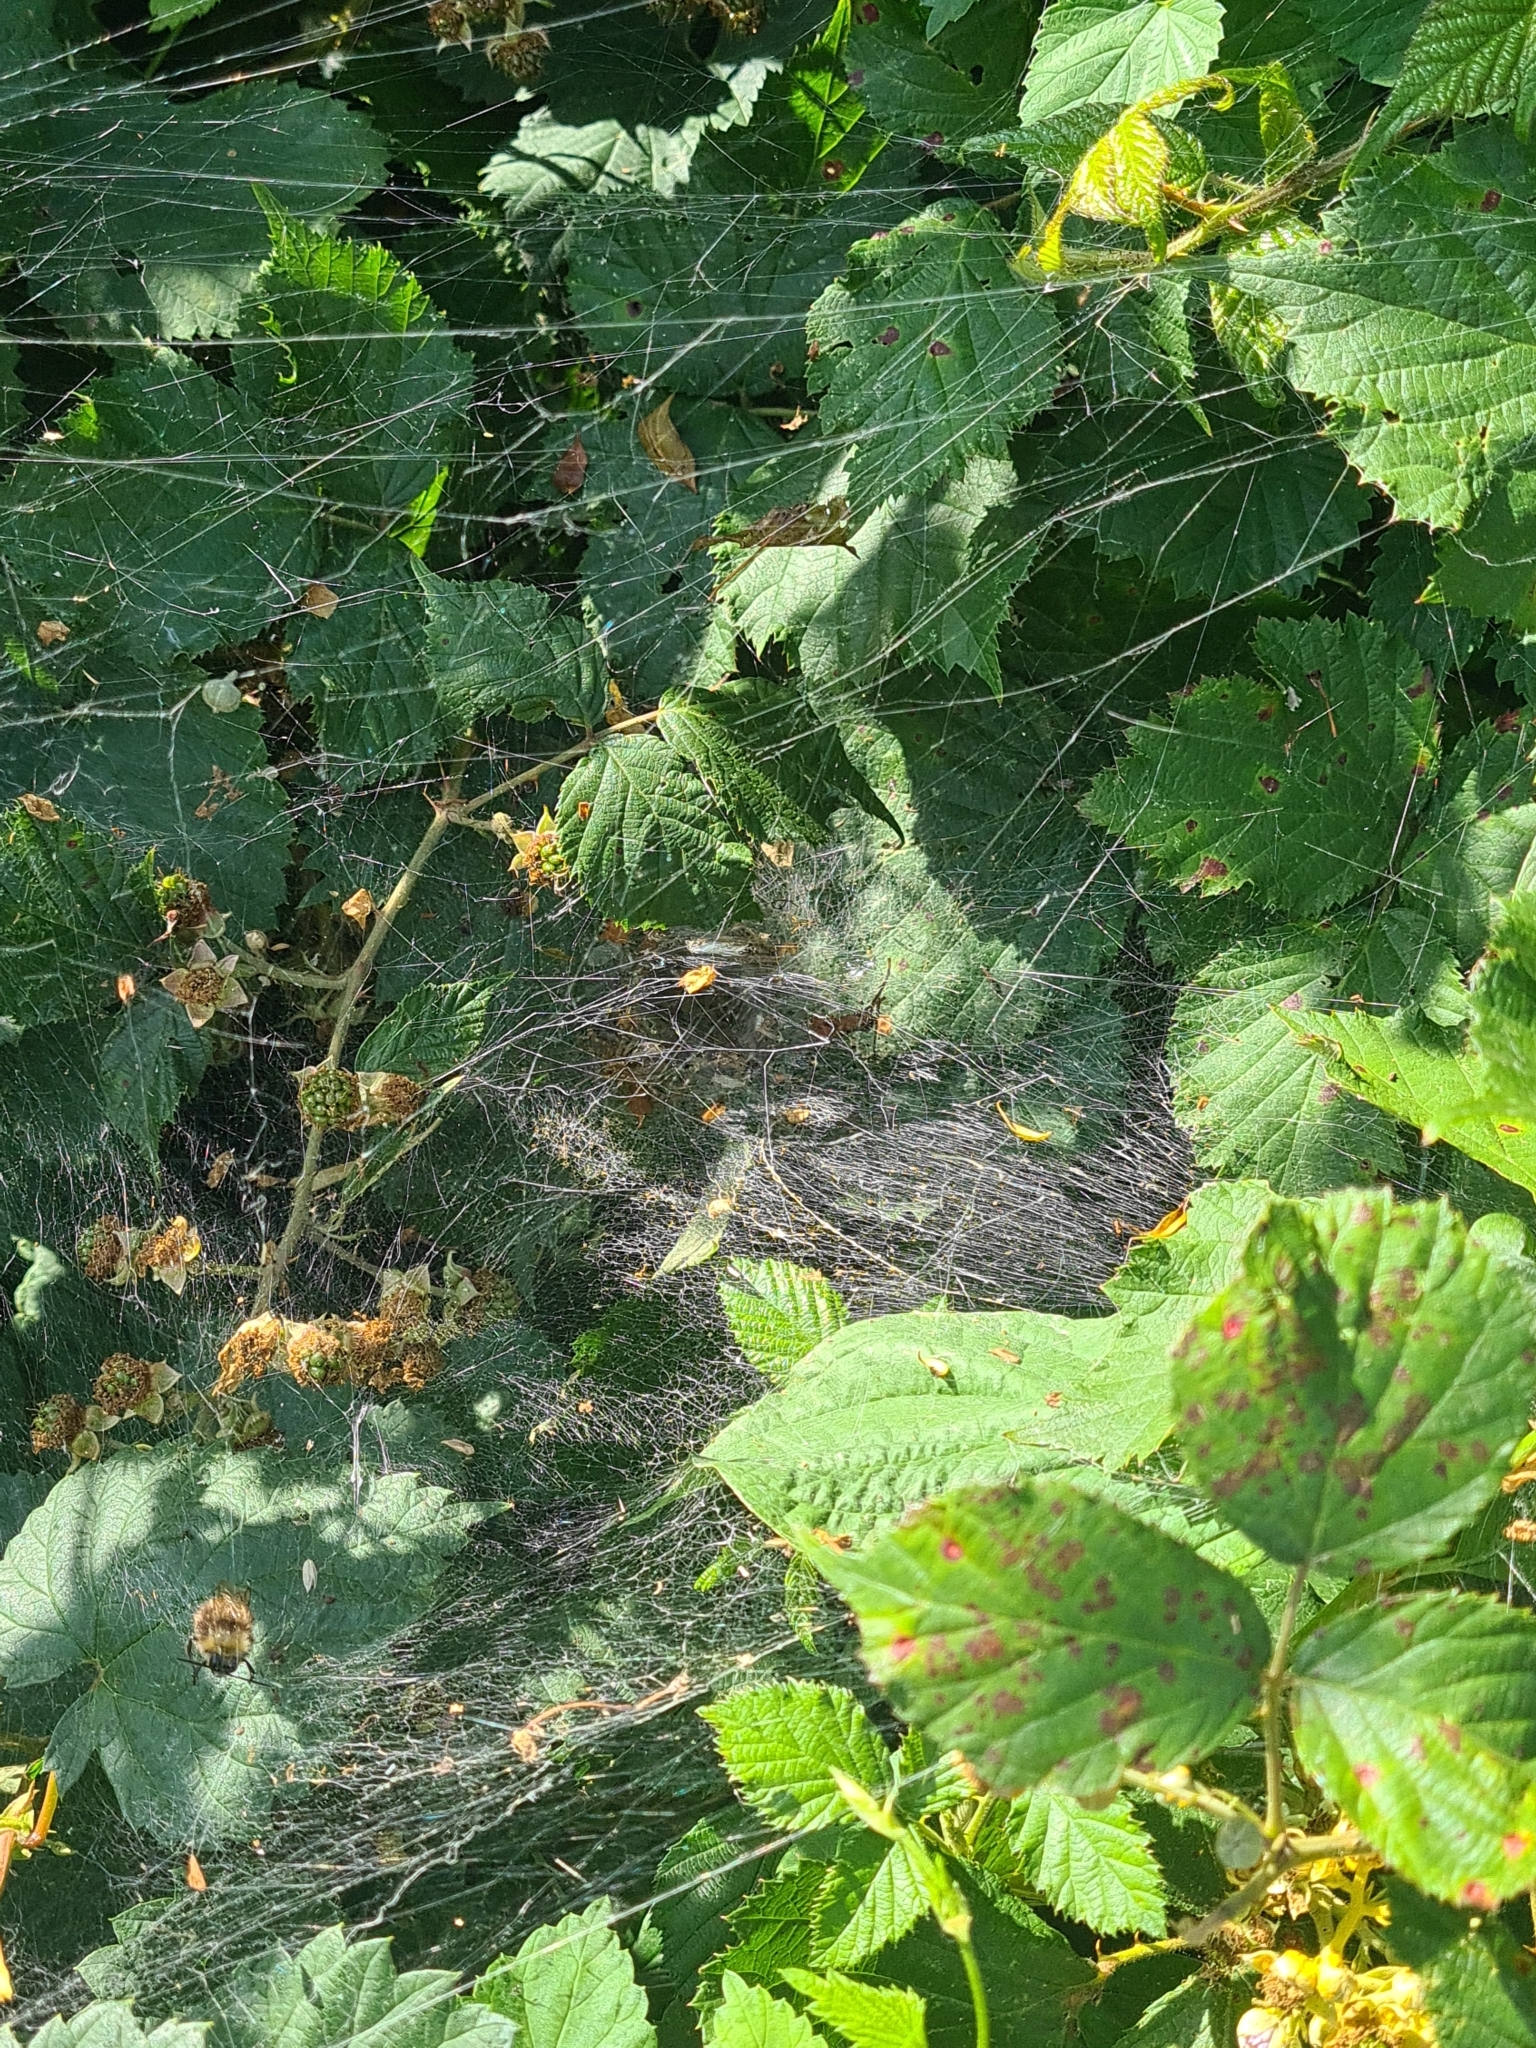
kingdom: Animalia
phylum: Arthropoda
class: Arachnida
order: Araneae
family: Agelenidae
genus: Agelena
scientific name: Agelena labyrinthica
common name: Labyrinth spider
